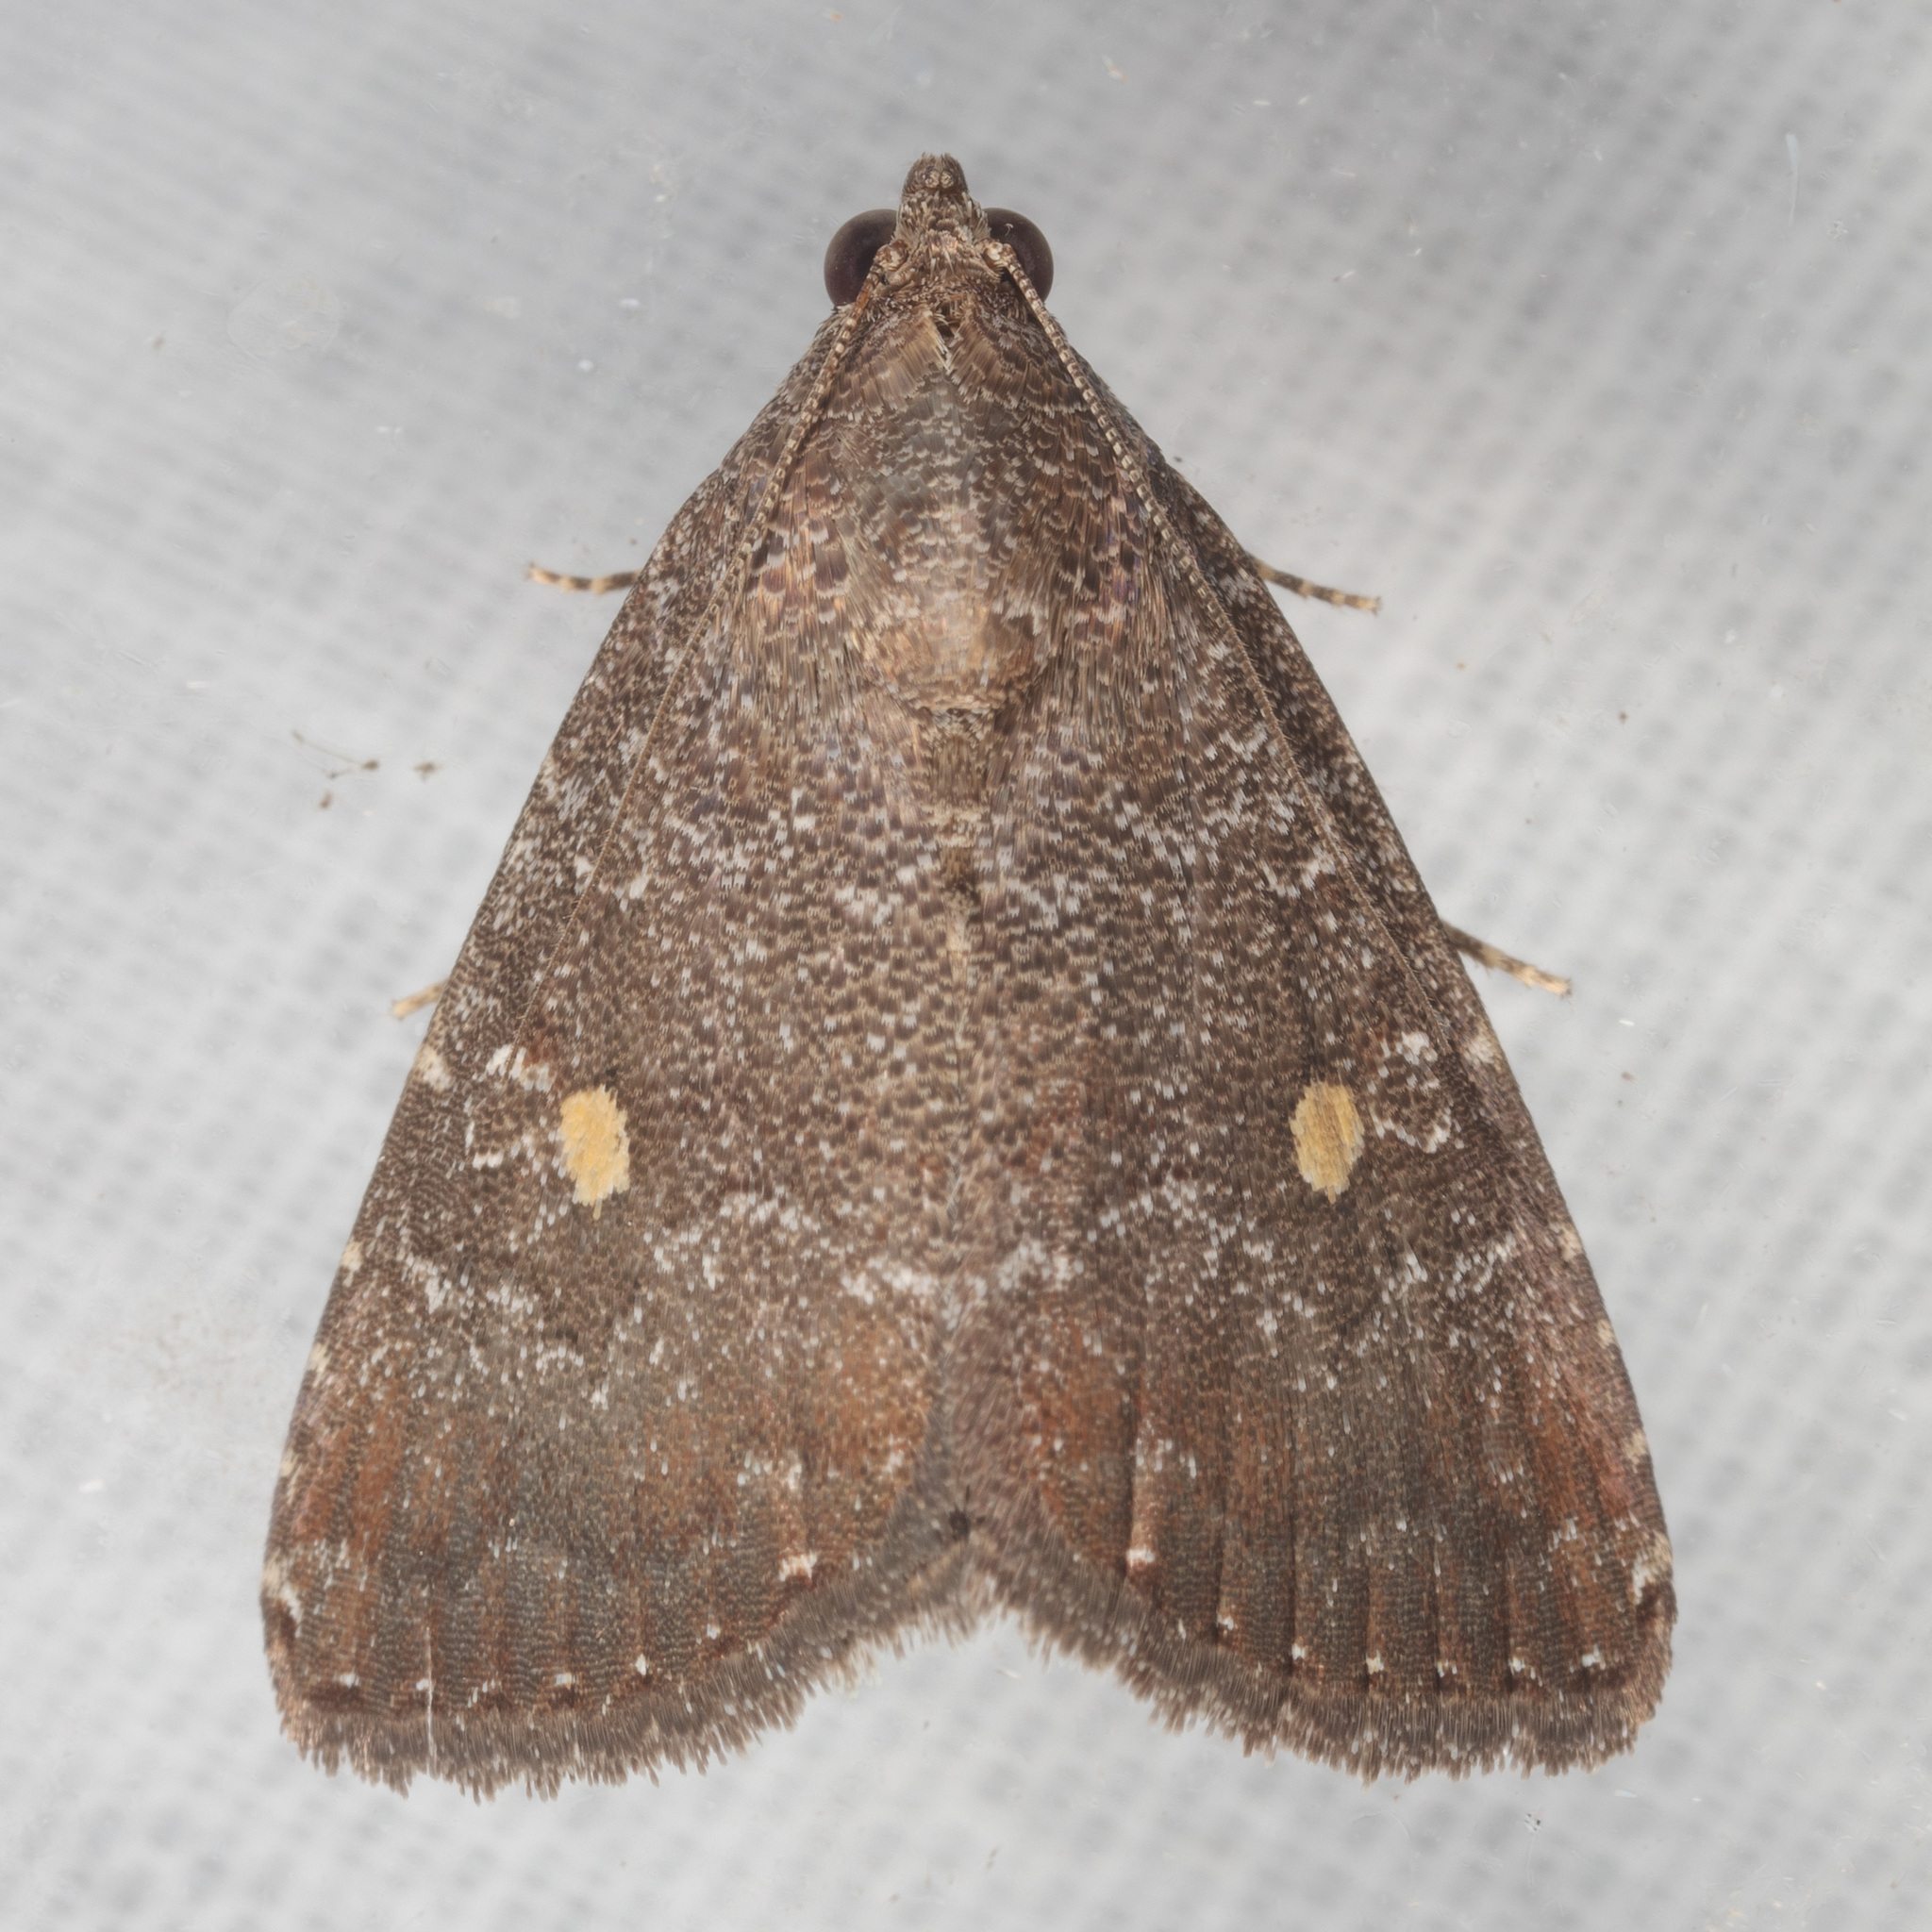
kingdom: Animalia
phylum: Arthropoda
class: Insecta
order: Lepidoptera
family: Noctuidae
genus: Amyna
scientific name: Amyna stricta
